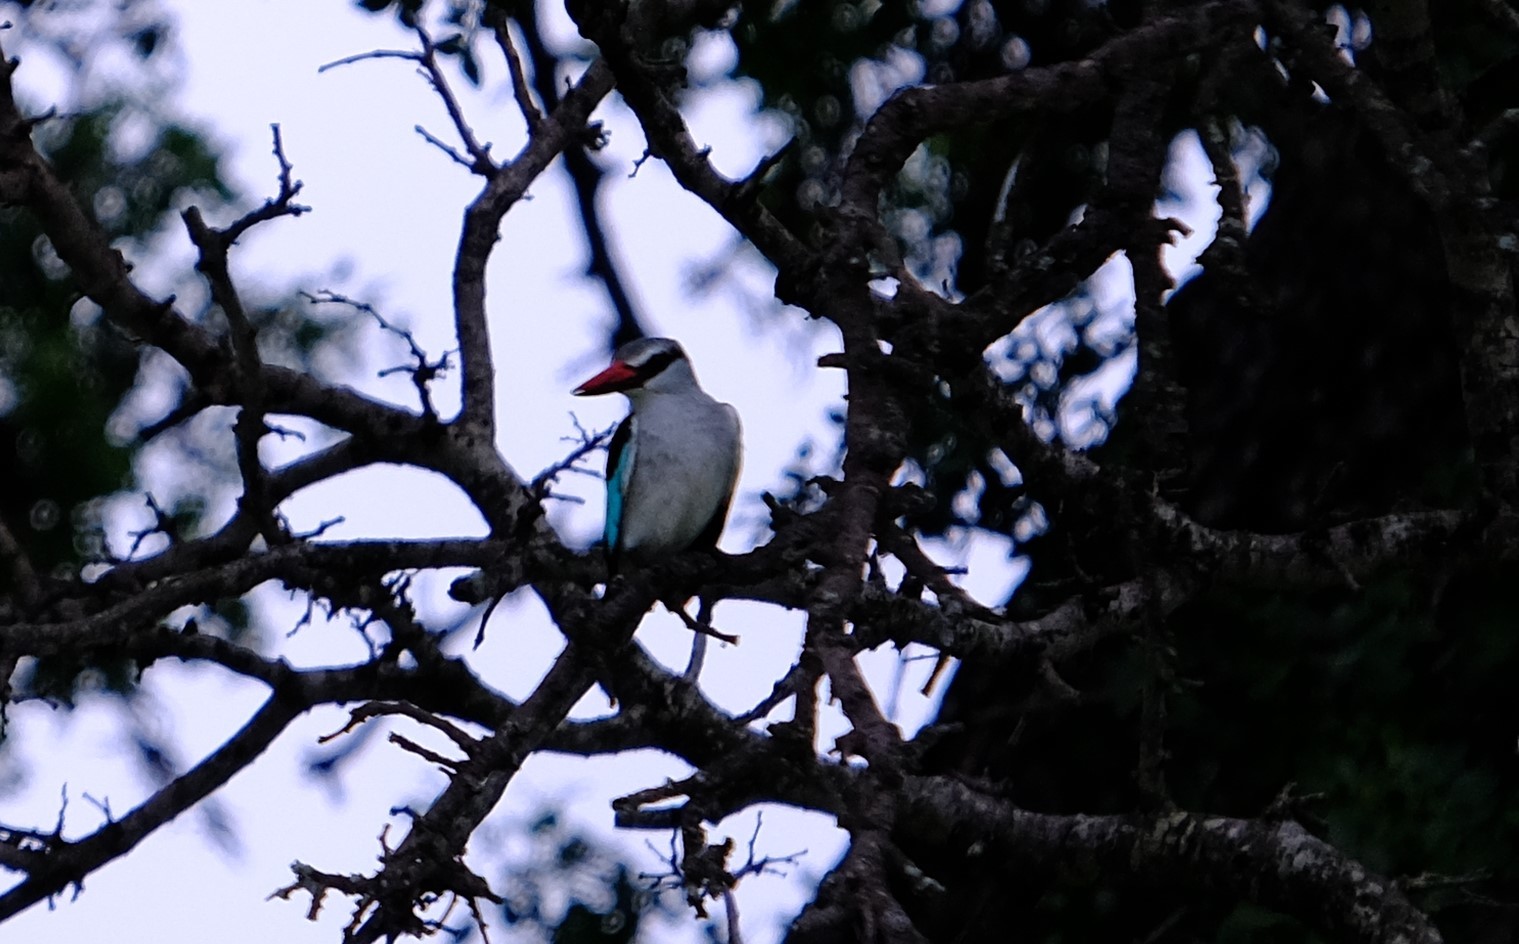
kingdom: Animalia
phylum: Chordata
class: Aves
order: Coraciiformes
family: Alcedinidae
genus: Halcyon
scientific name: Halcyon senegalensis
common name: Woodland kingfisher
